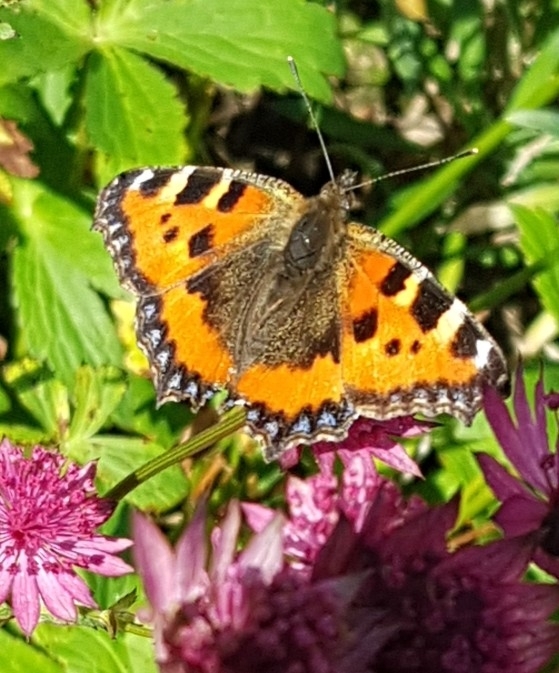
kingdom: Animalia
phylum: Arthropoda
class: Insecta
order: Lepidoptera
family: Nymphalidae
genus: Aglais
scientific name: Aglais urticae
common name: Small tortoiseshell
